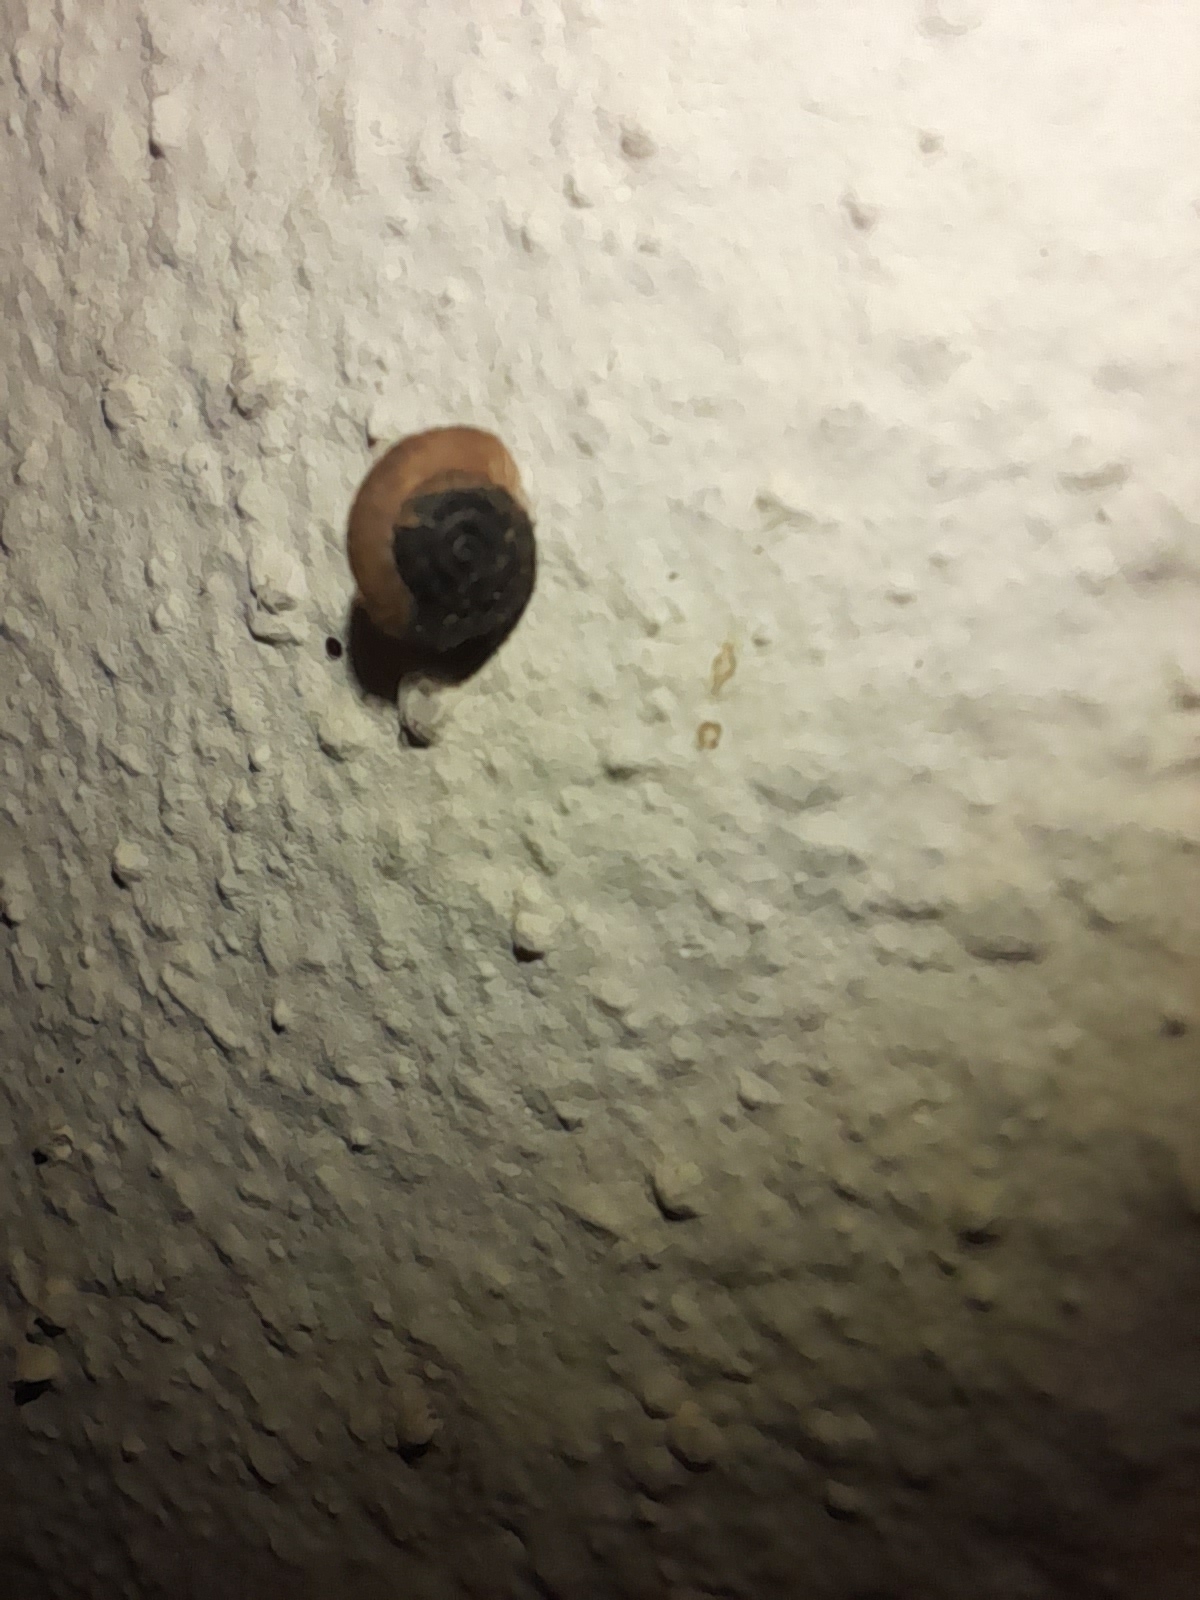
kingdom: Animalia
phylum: Mollusca
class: Gastropoda
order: Stylommatophora
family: Geomitridae
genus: Xerotricha
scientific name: Xerotricha conspurcata
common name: Snail
